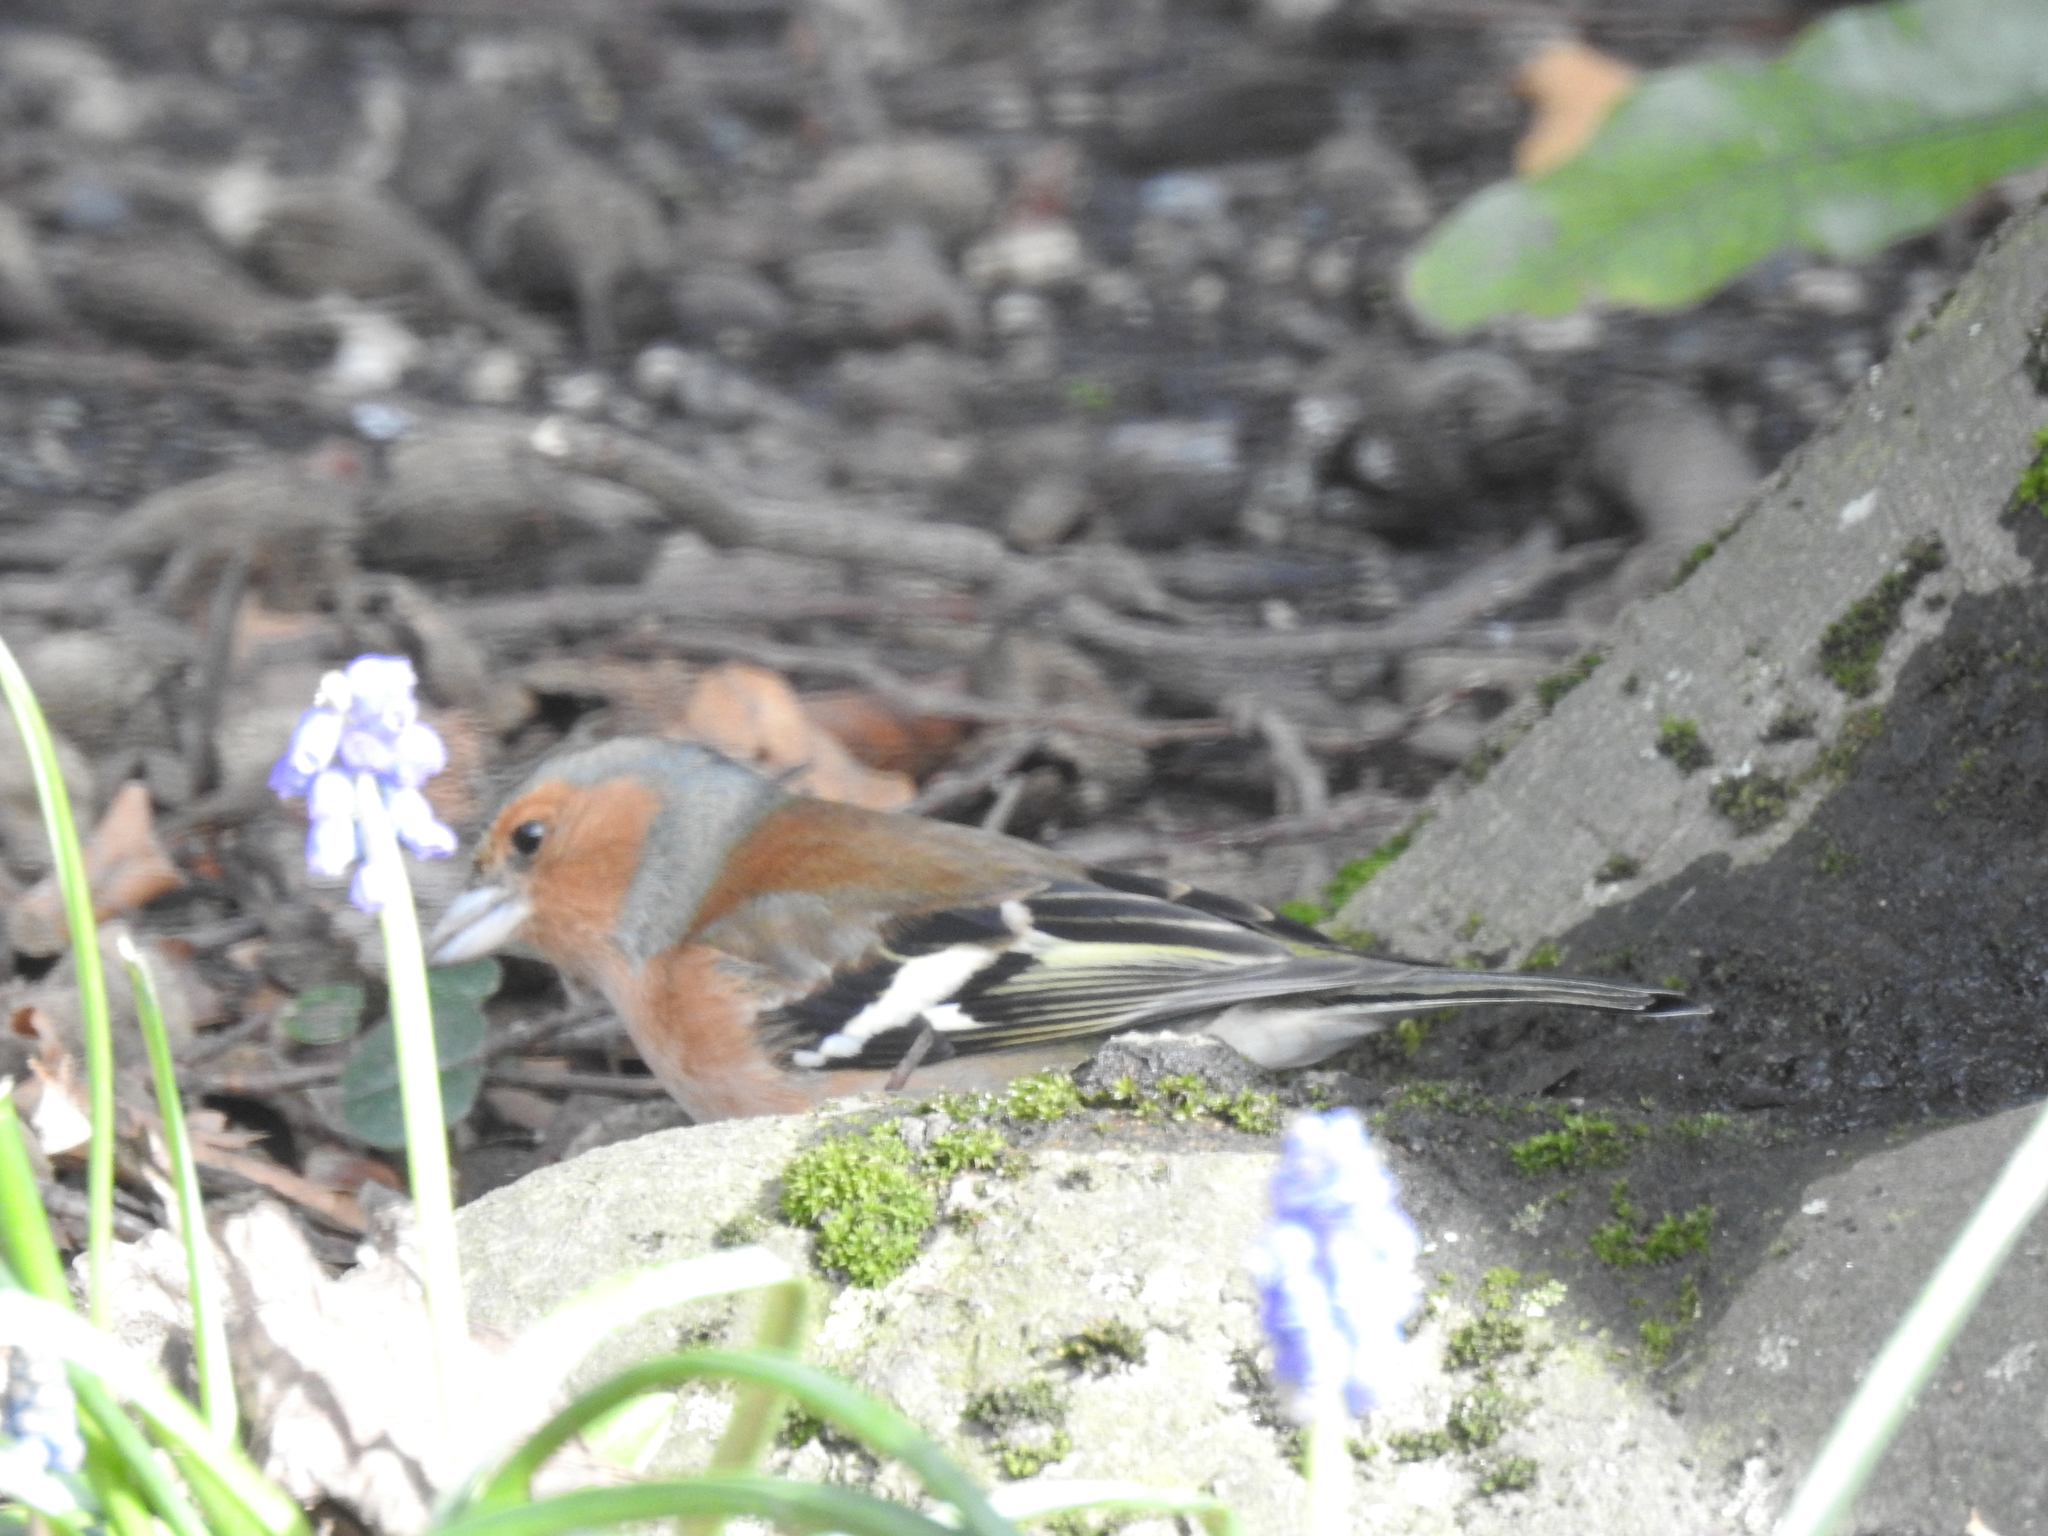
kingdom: Animalia
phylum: Chordata
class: Aves
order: Passeriformes
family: Fringillidae
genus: Fringilla
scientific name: Fringilla coelebs
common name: Common chaffinch
